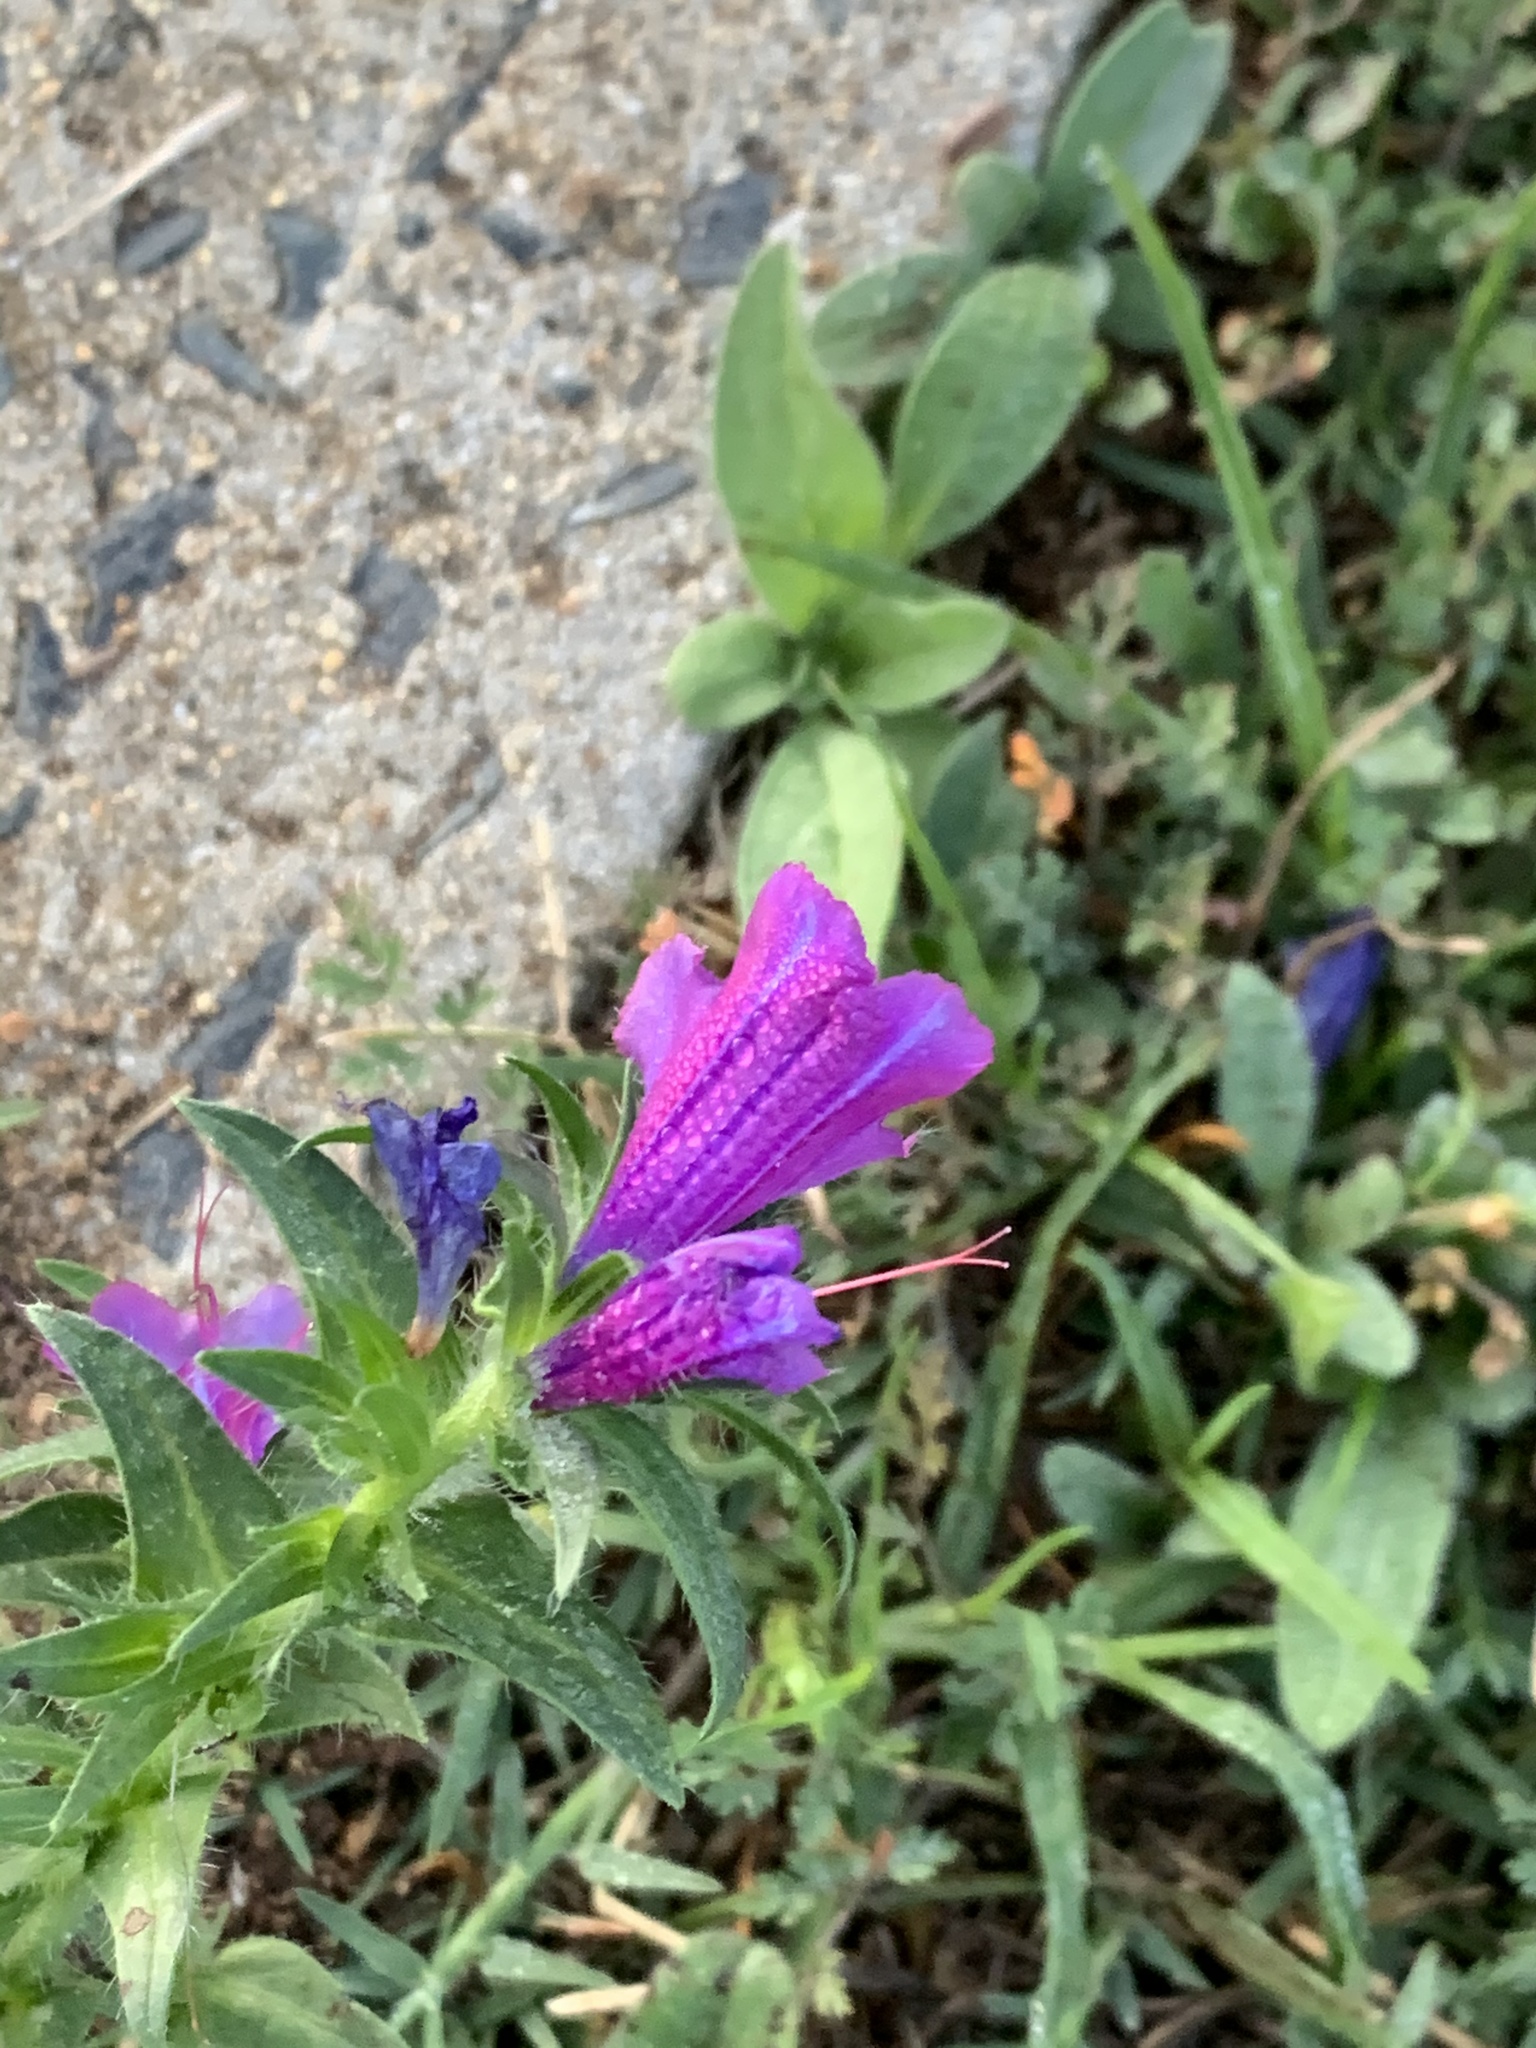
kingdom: Plantae
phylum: Tracheophyta
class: Magnoliopsida
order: Boraginales
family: Boraginaceae
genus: Echium
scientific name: Echium plantagineum
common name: Purple viper's-bugloss
